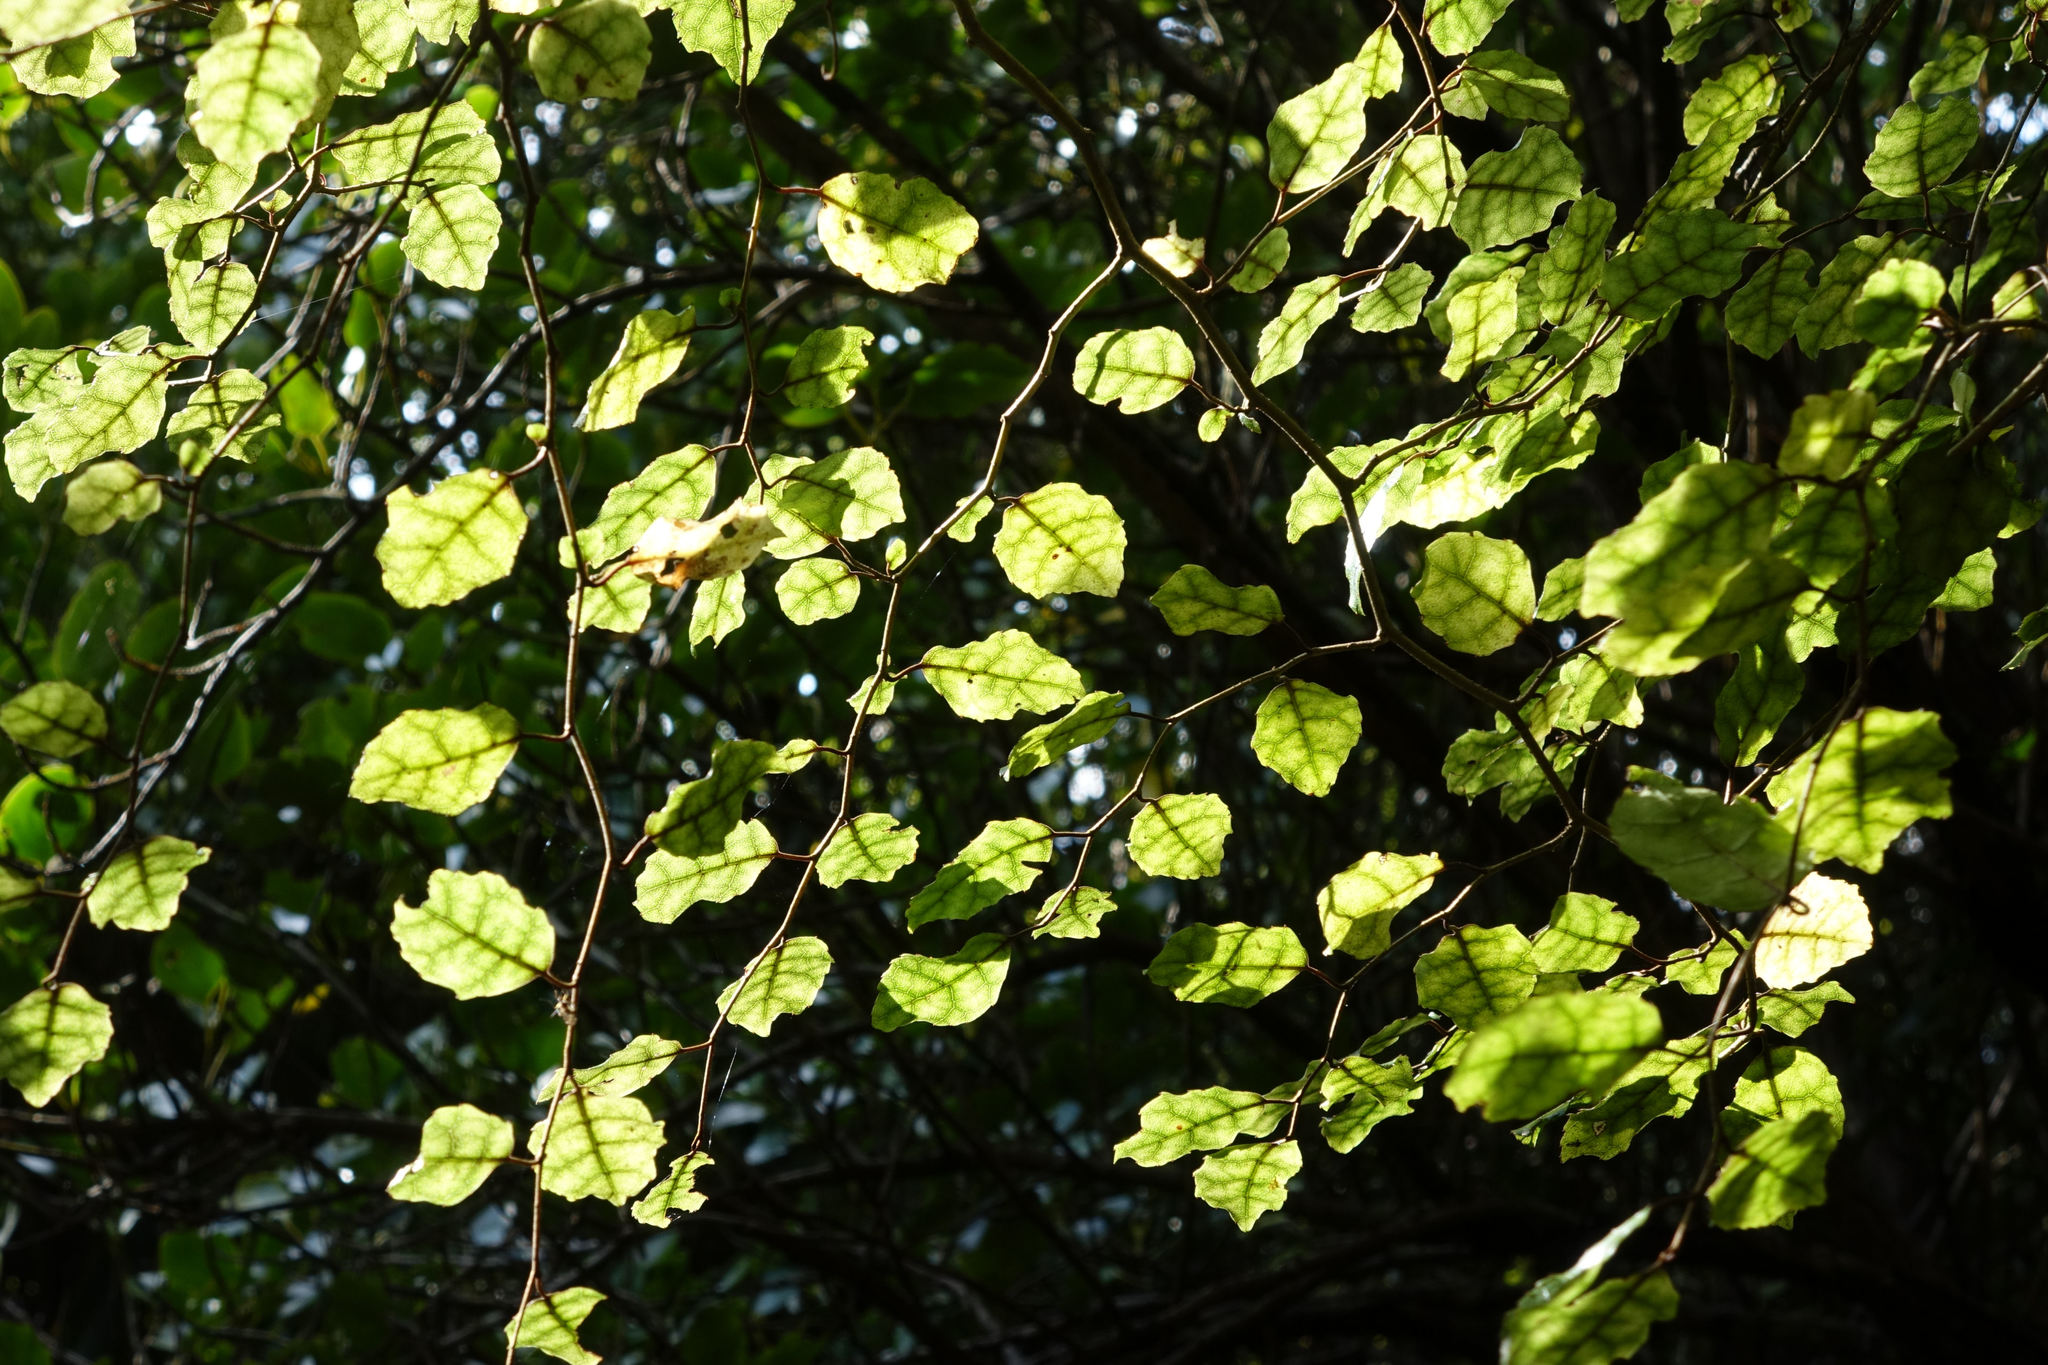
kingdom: Plantae
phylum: Tracheophyta
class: Magnoliopsida
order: Asterales
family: Rousseaceae
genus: Carpodetus
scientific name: Carpodetus serratus
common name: White mapau
